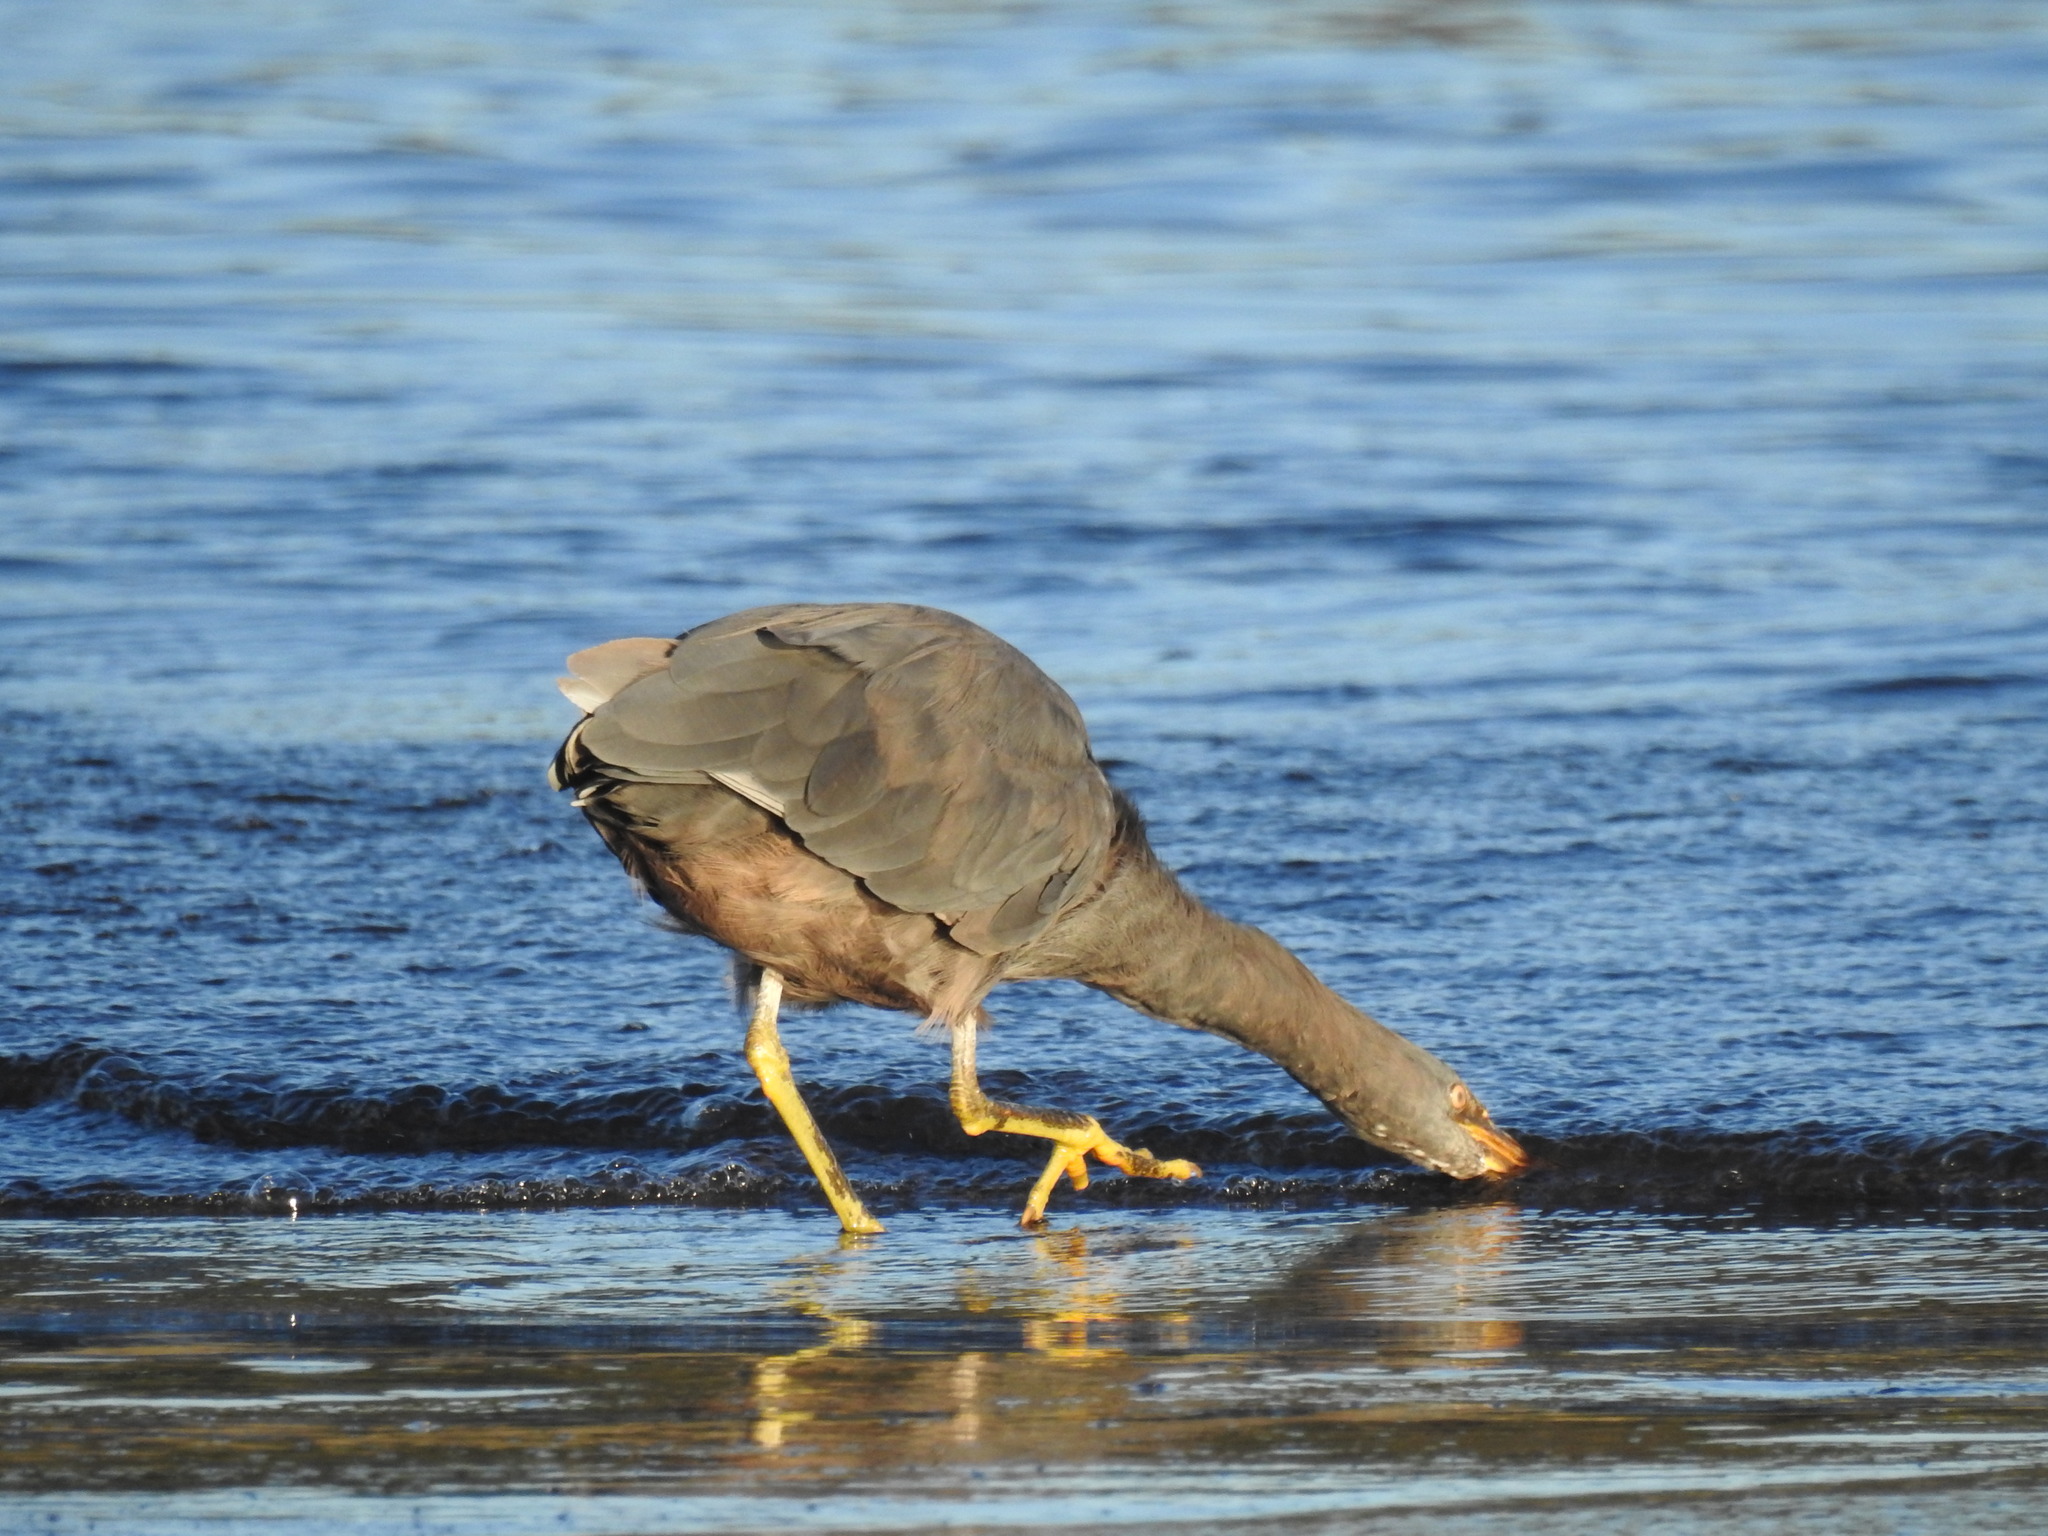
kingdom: Animalia
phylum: Chordata
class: Aves
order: Pelecaniformes
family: Ardeidae
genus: Egretta
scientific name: Egretta sacra
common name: Pacific reef heron
